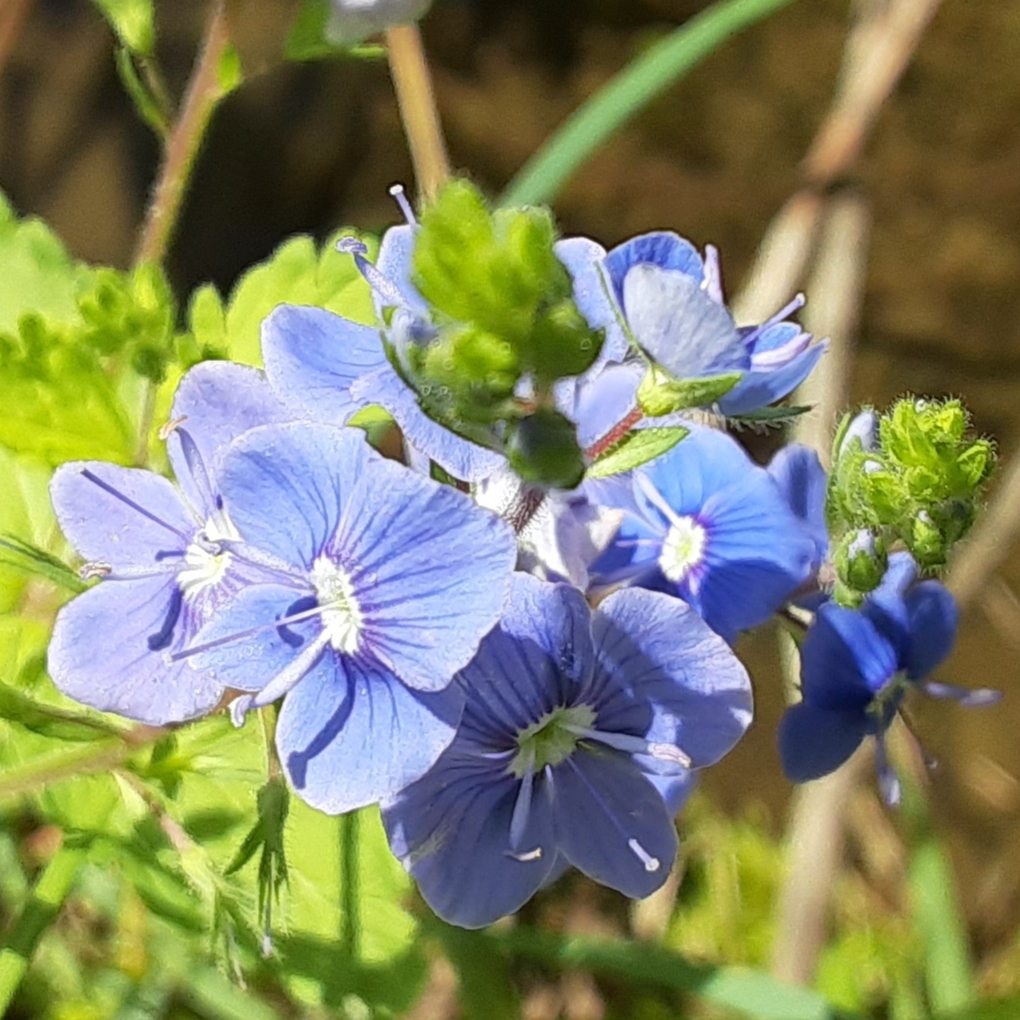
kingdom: Plantae
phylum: Tracheophyta
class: Magnoliopsida
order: Lamiales
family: Plantaginaceae
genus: Veronica
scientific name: Veronica chamaedrys
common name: Germander speedwell
